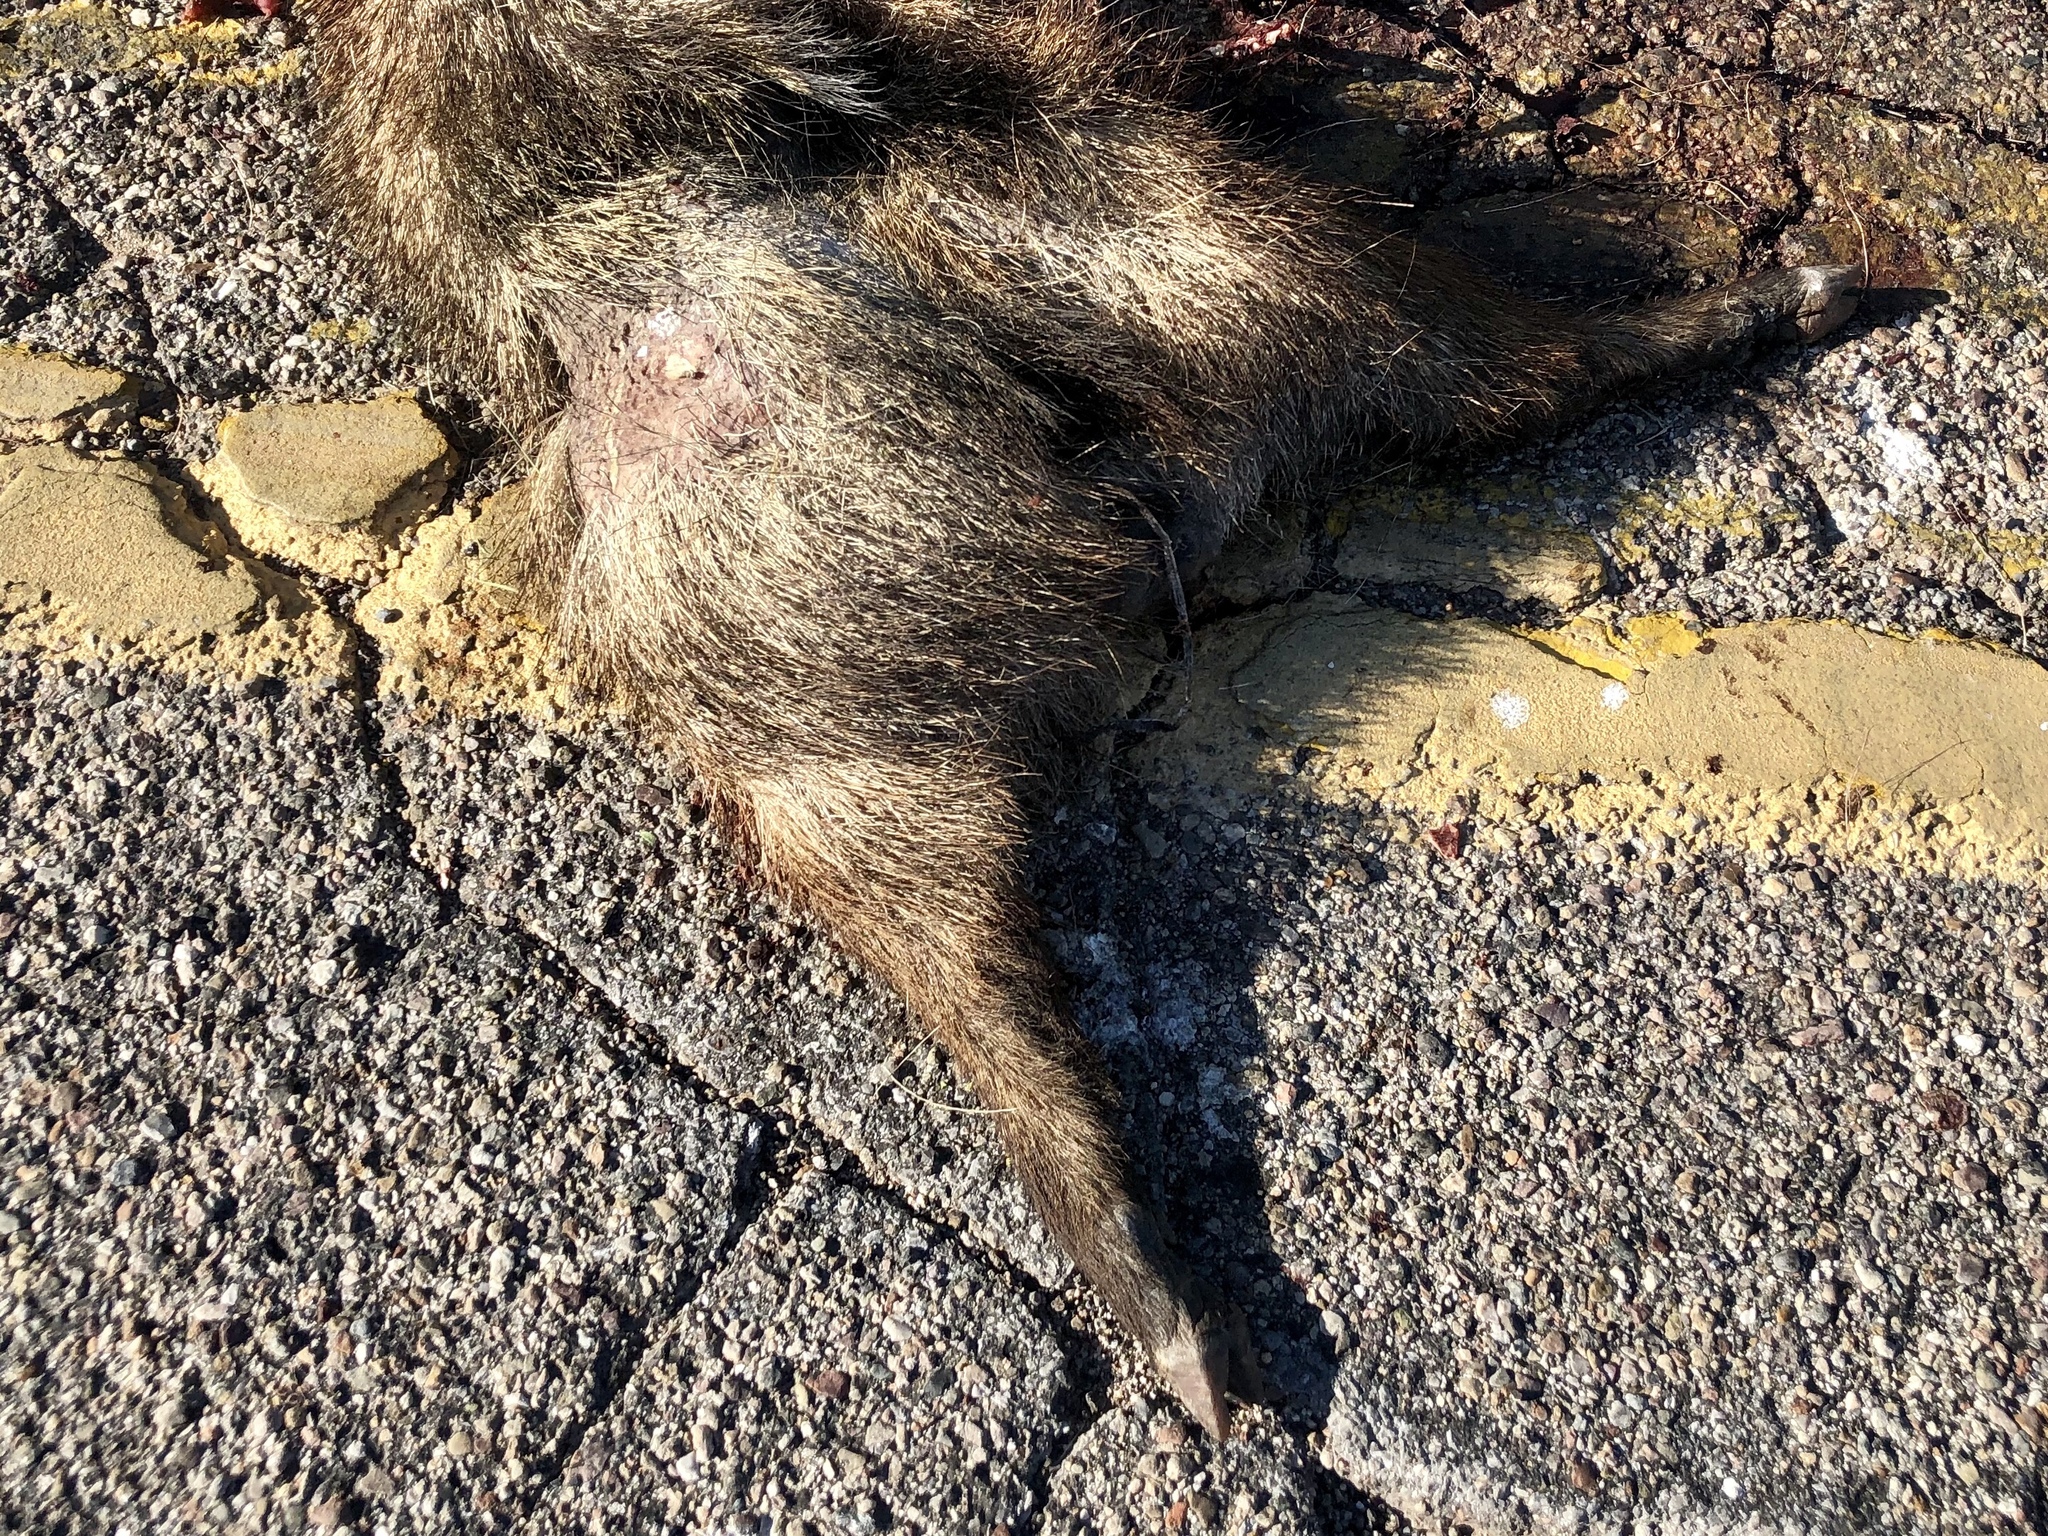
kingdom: Animalia
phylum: Chordata
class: Mammalia
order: Artiodactyla
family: Tayassuidae
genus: Pecari
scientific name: Pecari tajacu
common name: Collared peccary
